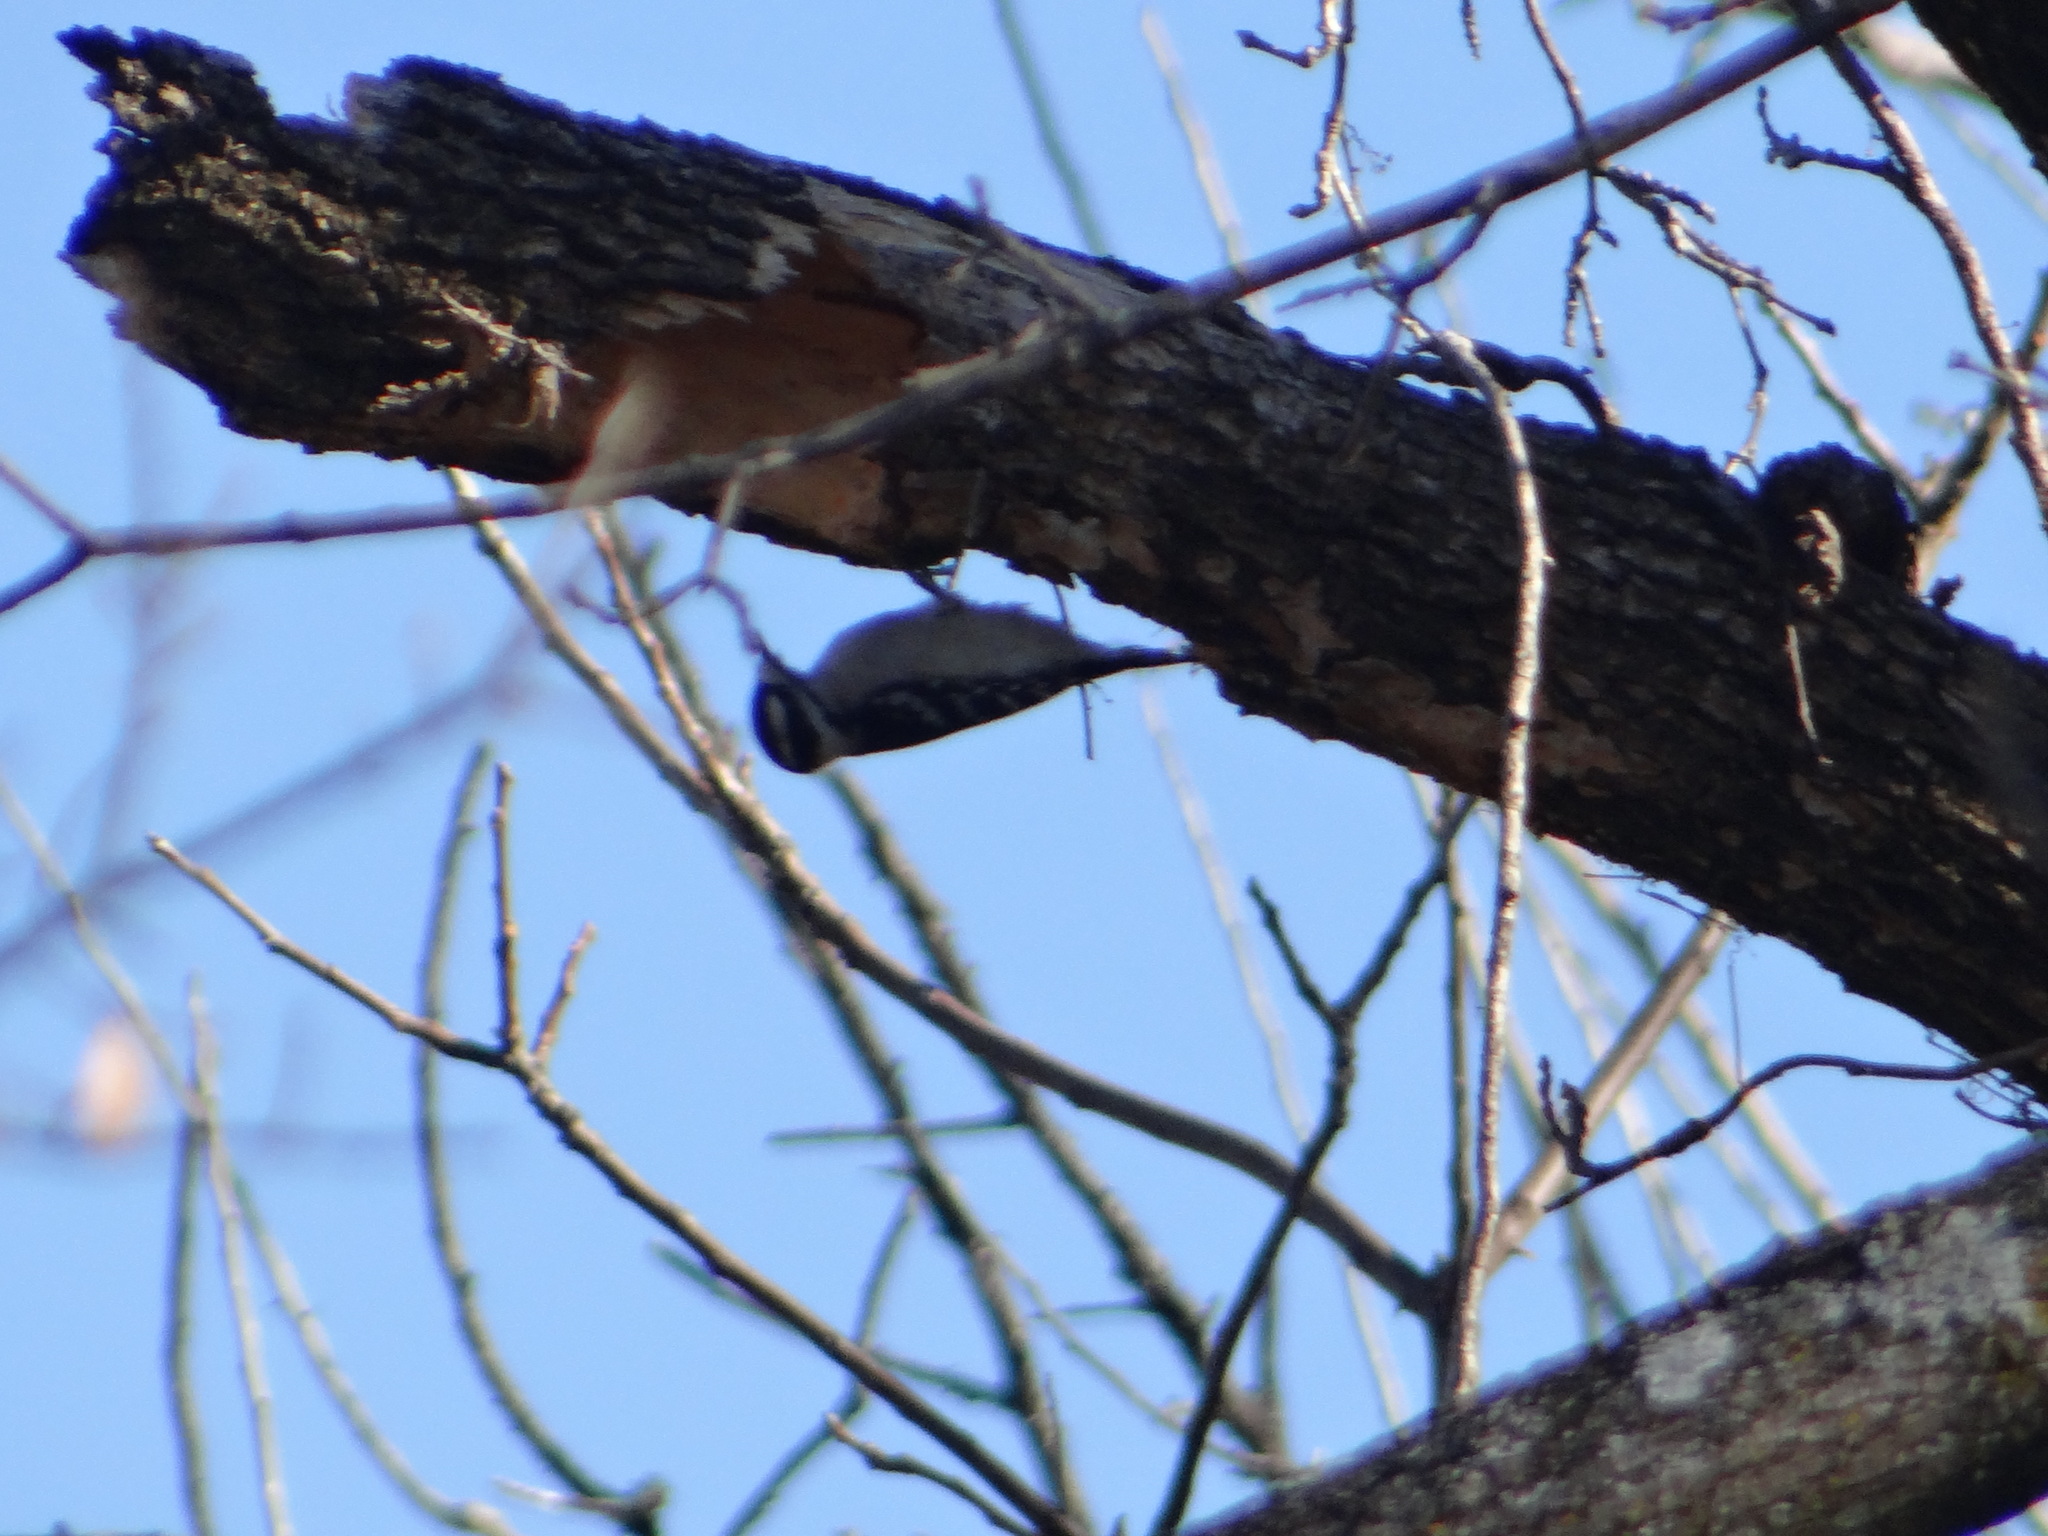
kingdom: Animalia
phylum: Chordata
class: Aves
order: Piciformes
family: Picidae
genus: Dryobates
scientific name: Dryobates pubescens
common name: Downy woodpecker
